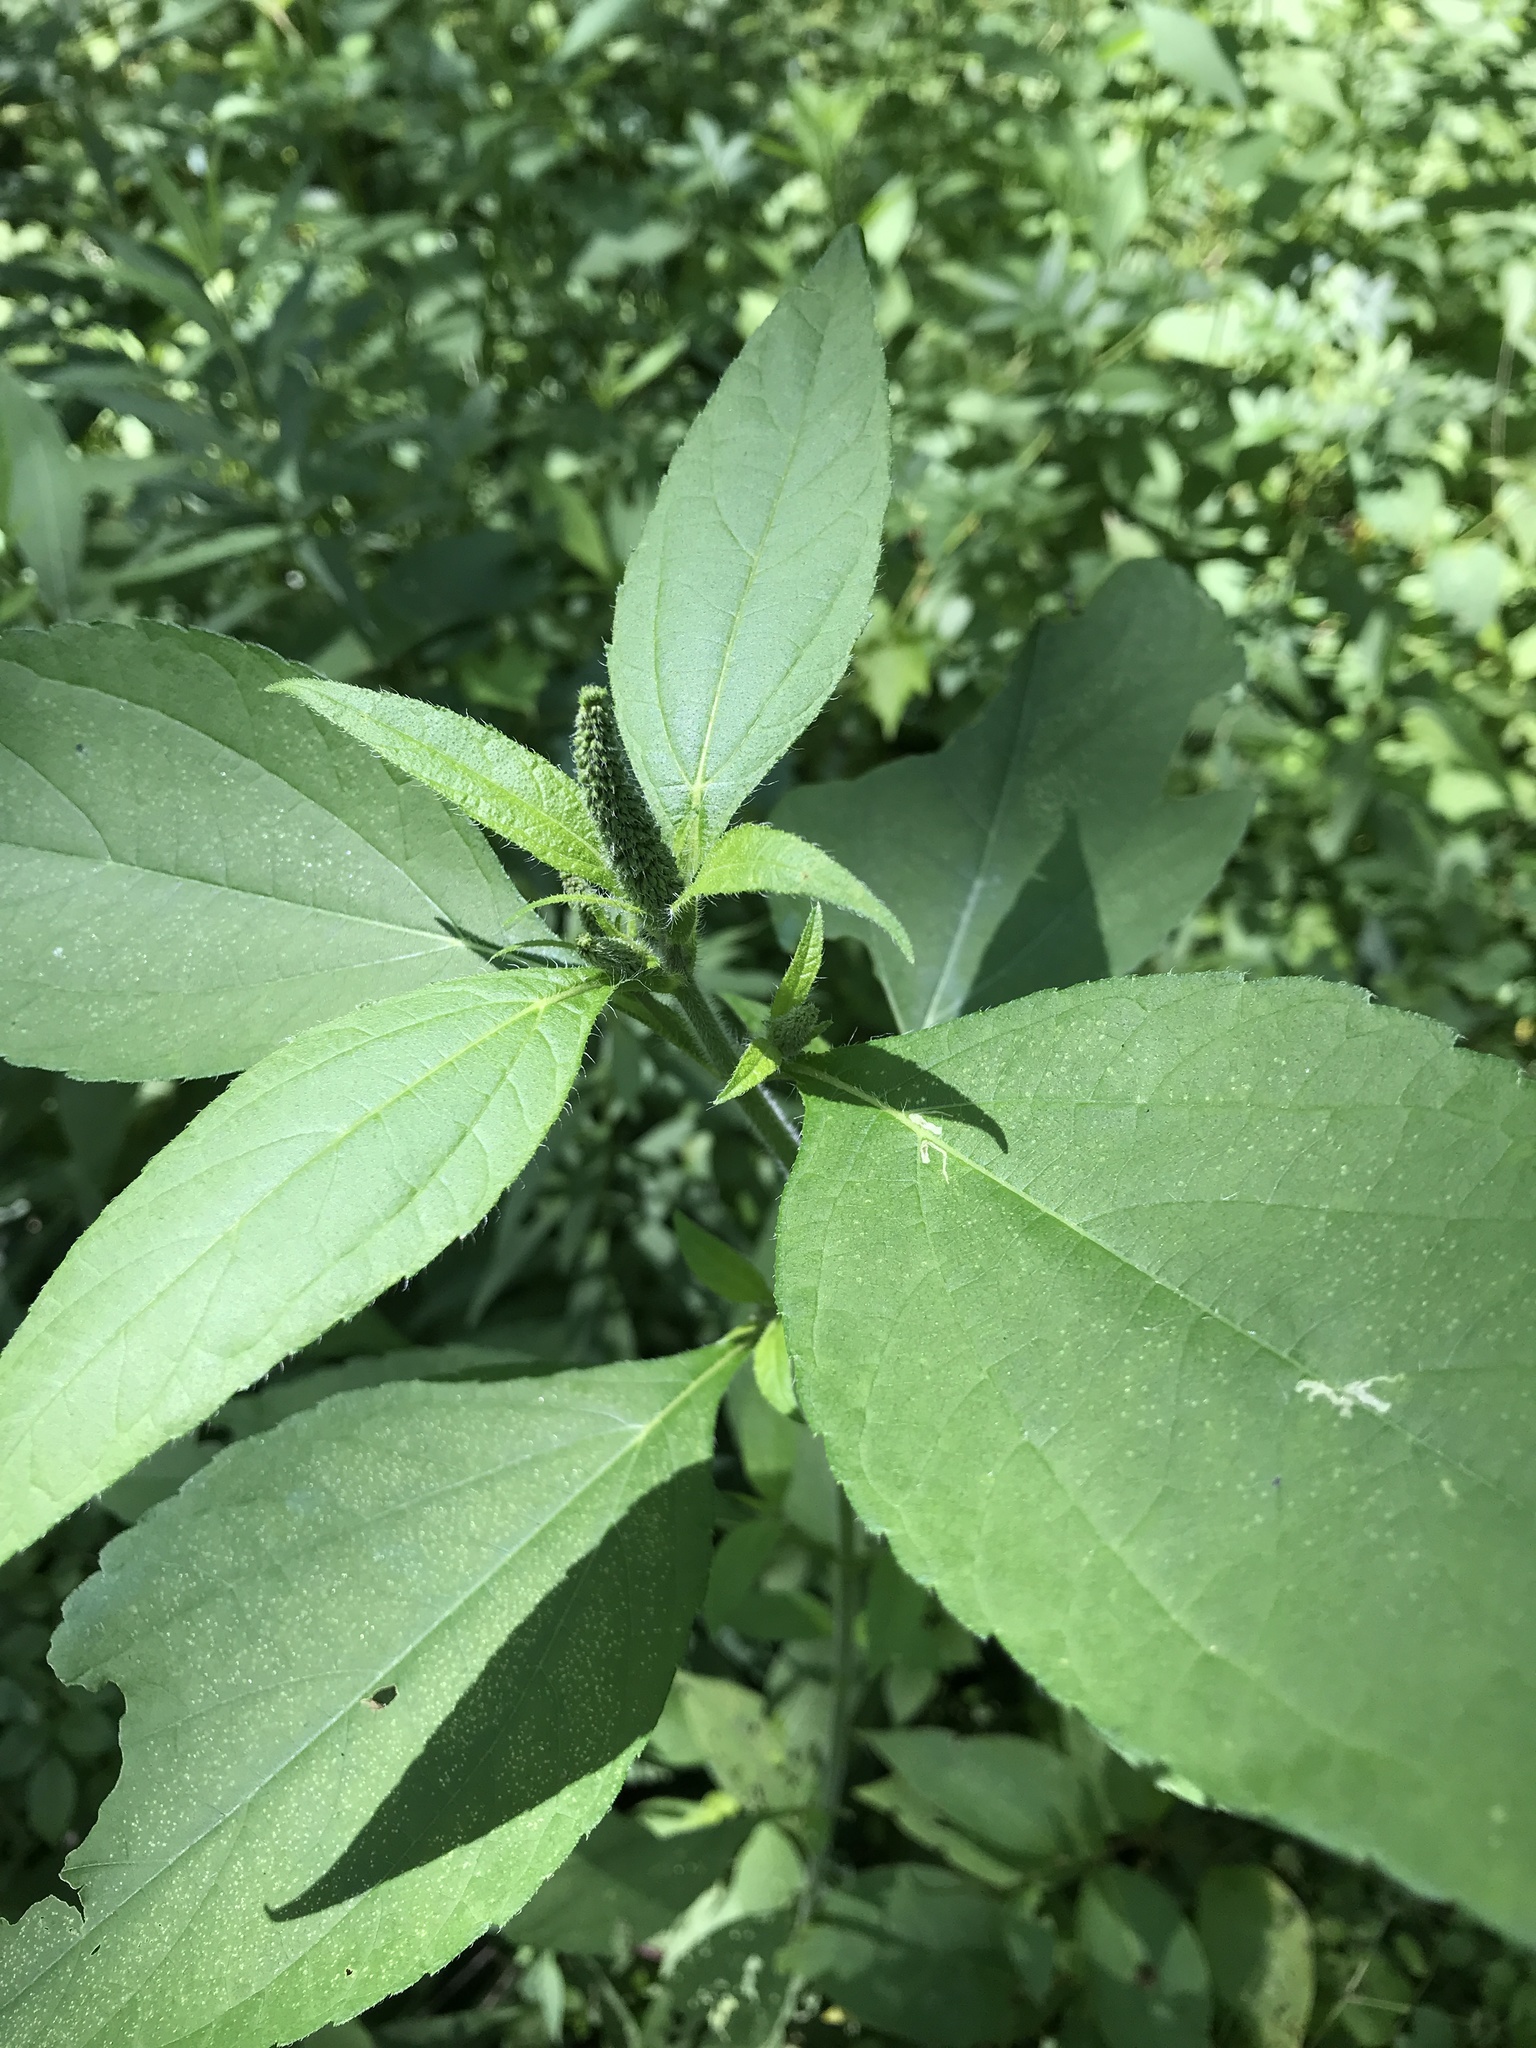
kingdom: Plantae
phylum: Tracheophyta
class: Magnoliopsida
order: Asterales
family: Asteraceae
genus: Ambrosia
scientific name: Ambrosia trifida
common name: Giant ragweed
